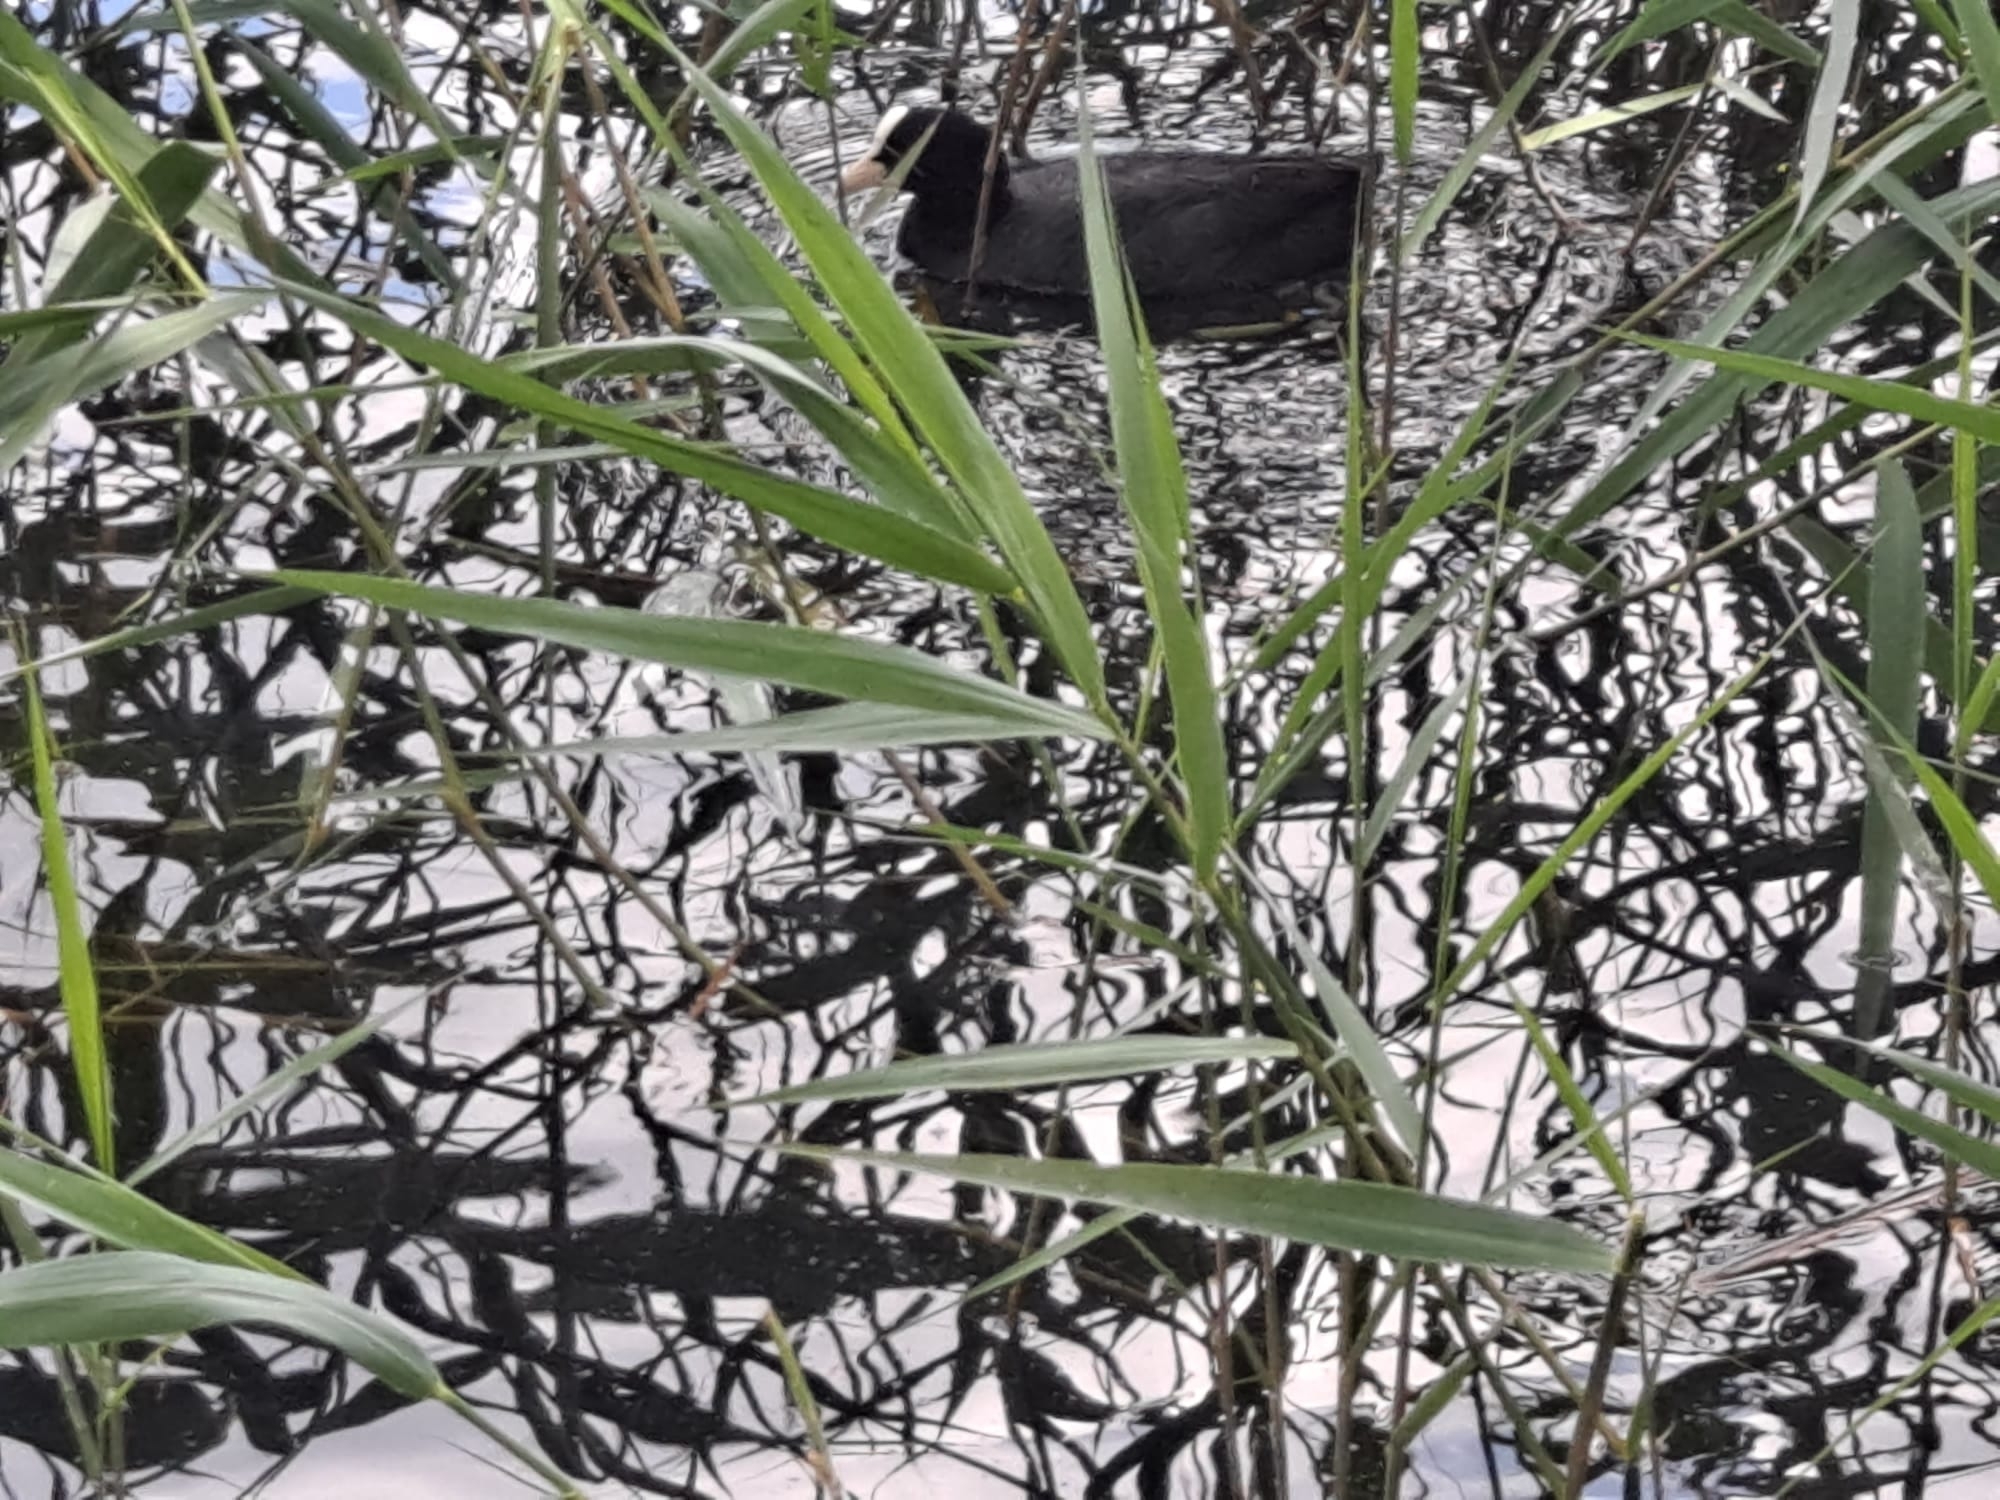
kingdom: Animalia
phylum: Chordata
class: Aves
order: Gruiformes
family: Rallidae
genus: Fulica
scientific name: Fulica atra
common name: Eurasian coot
